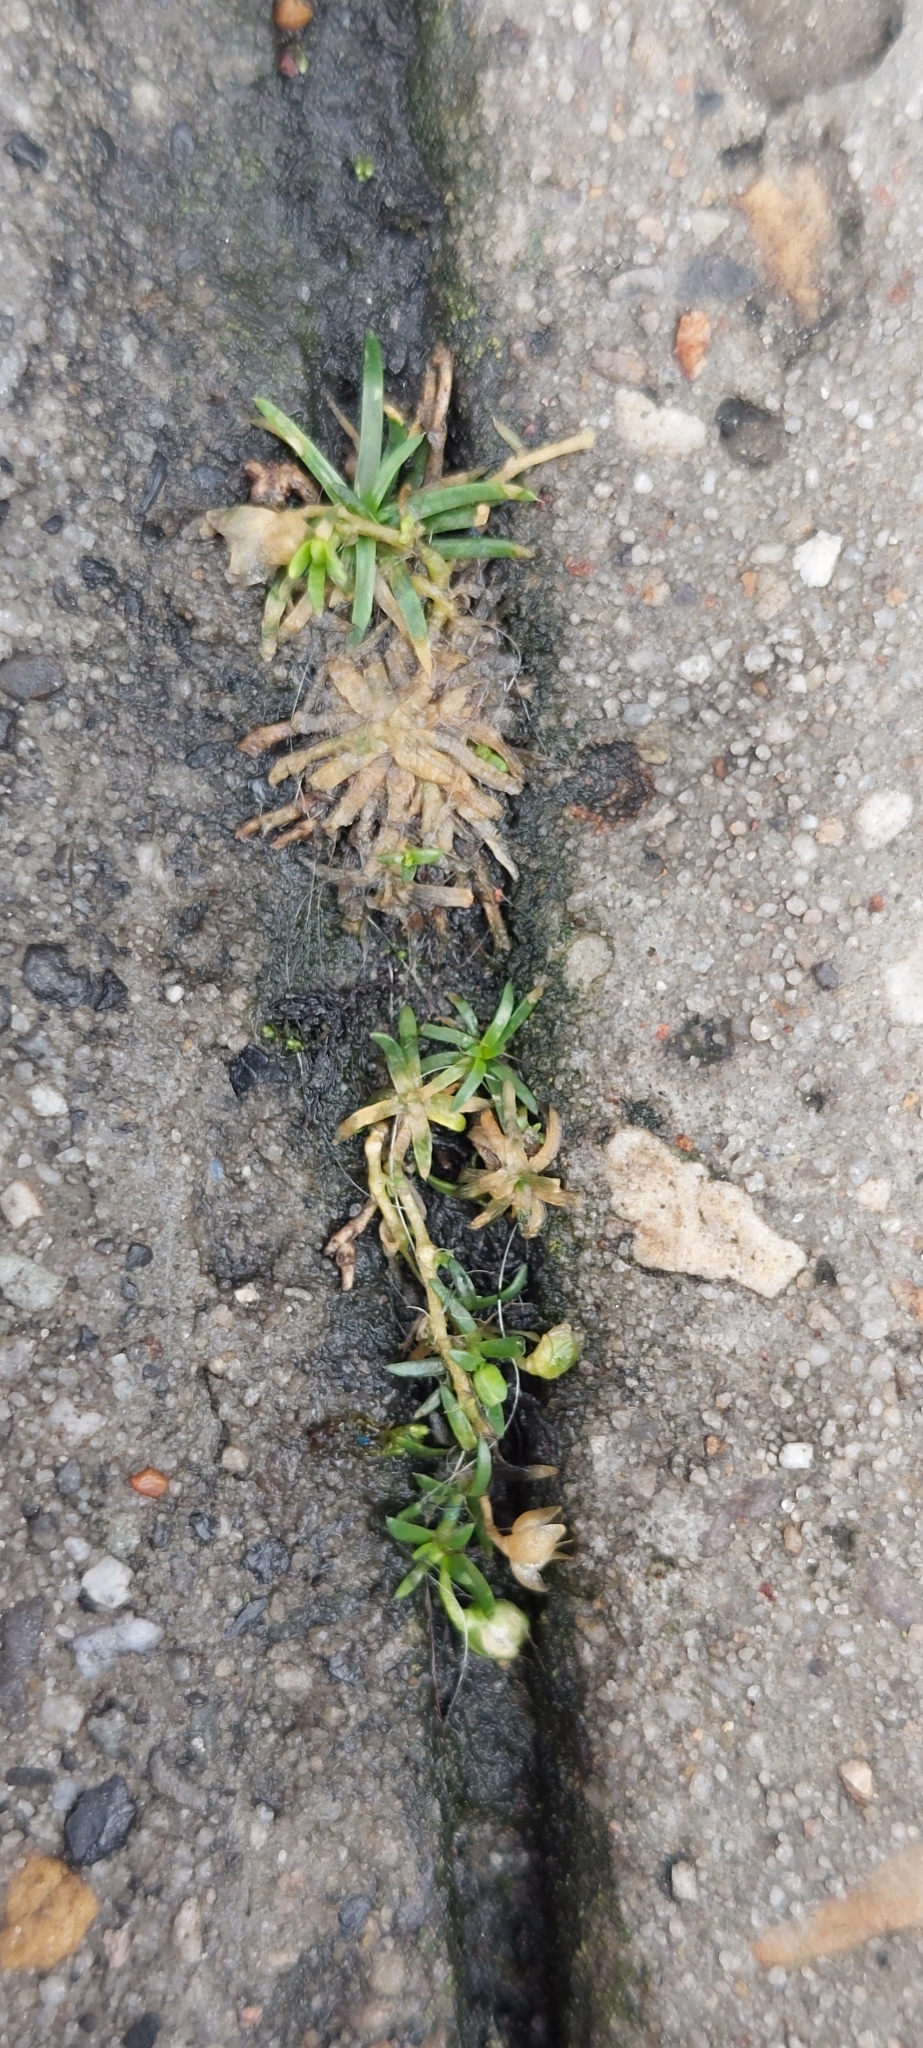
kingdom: Plantae
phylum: Tracheophyta
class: Magnoliopsida
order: Caryophyllales
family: Caryophyllaceae
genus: Sagina
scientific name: Sagina procumbens
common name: Procumbent pearlwort
